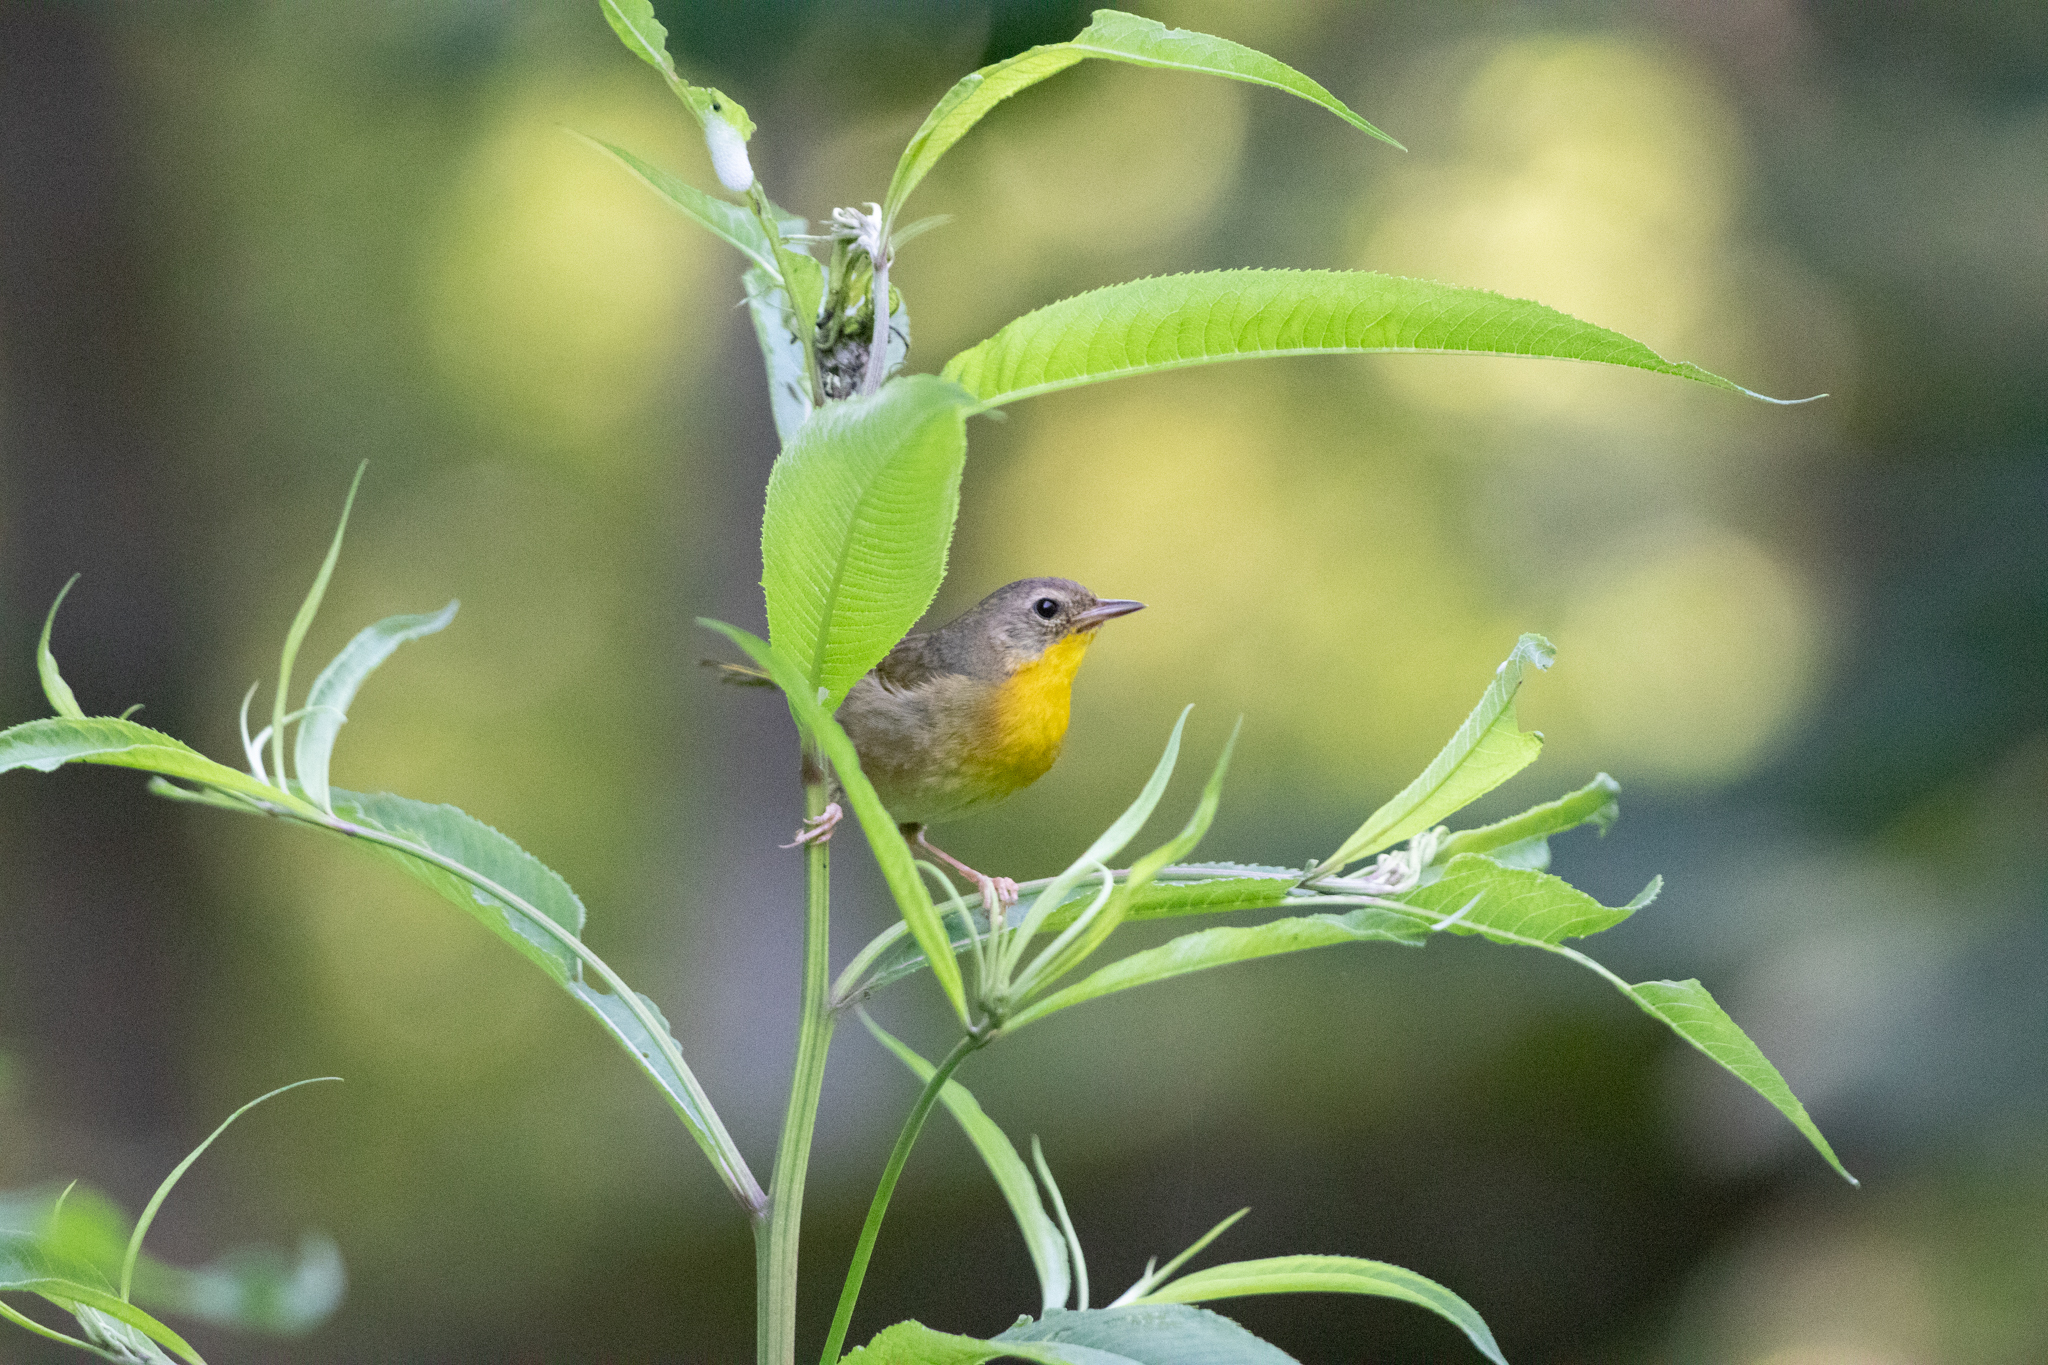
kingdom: Animalia
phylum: Chordata
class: Aves
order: Passeriformes
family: Parulidae
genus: Geothlypis
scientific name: Geothlypis trichas
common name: Common yellowthroat
